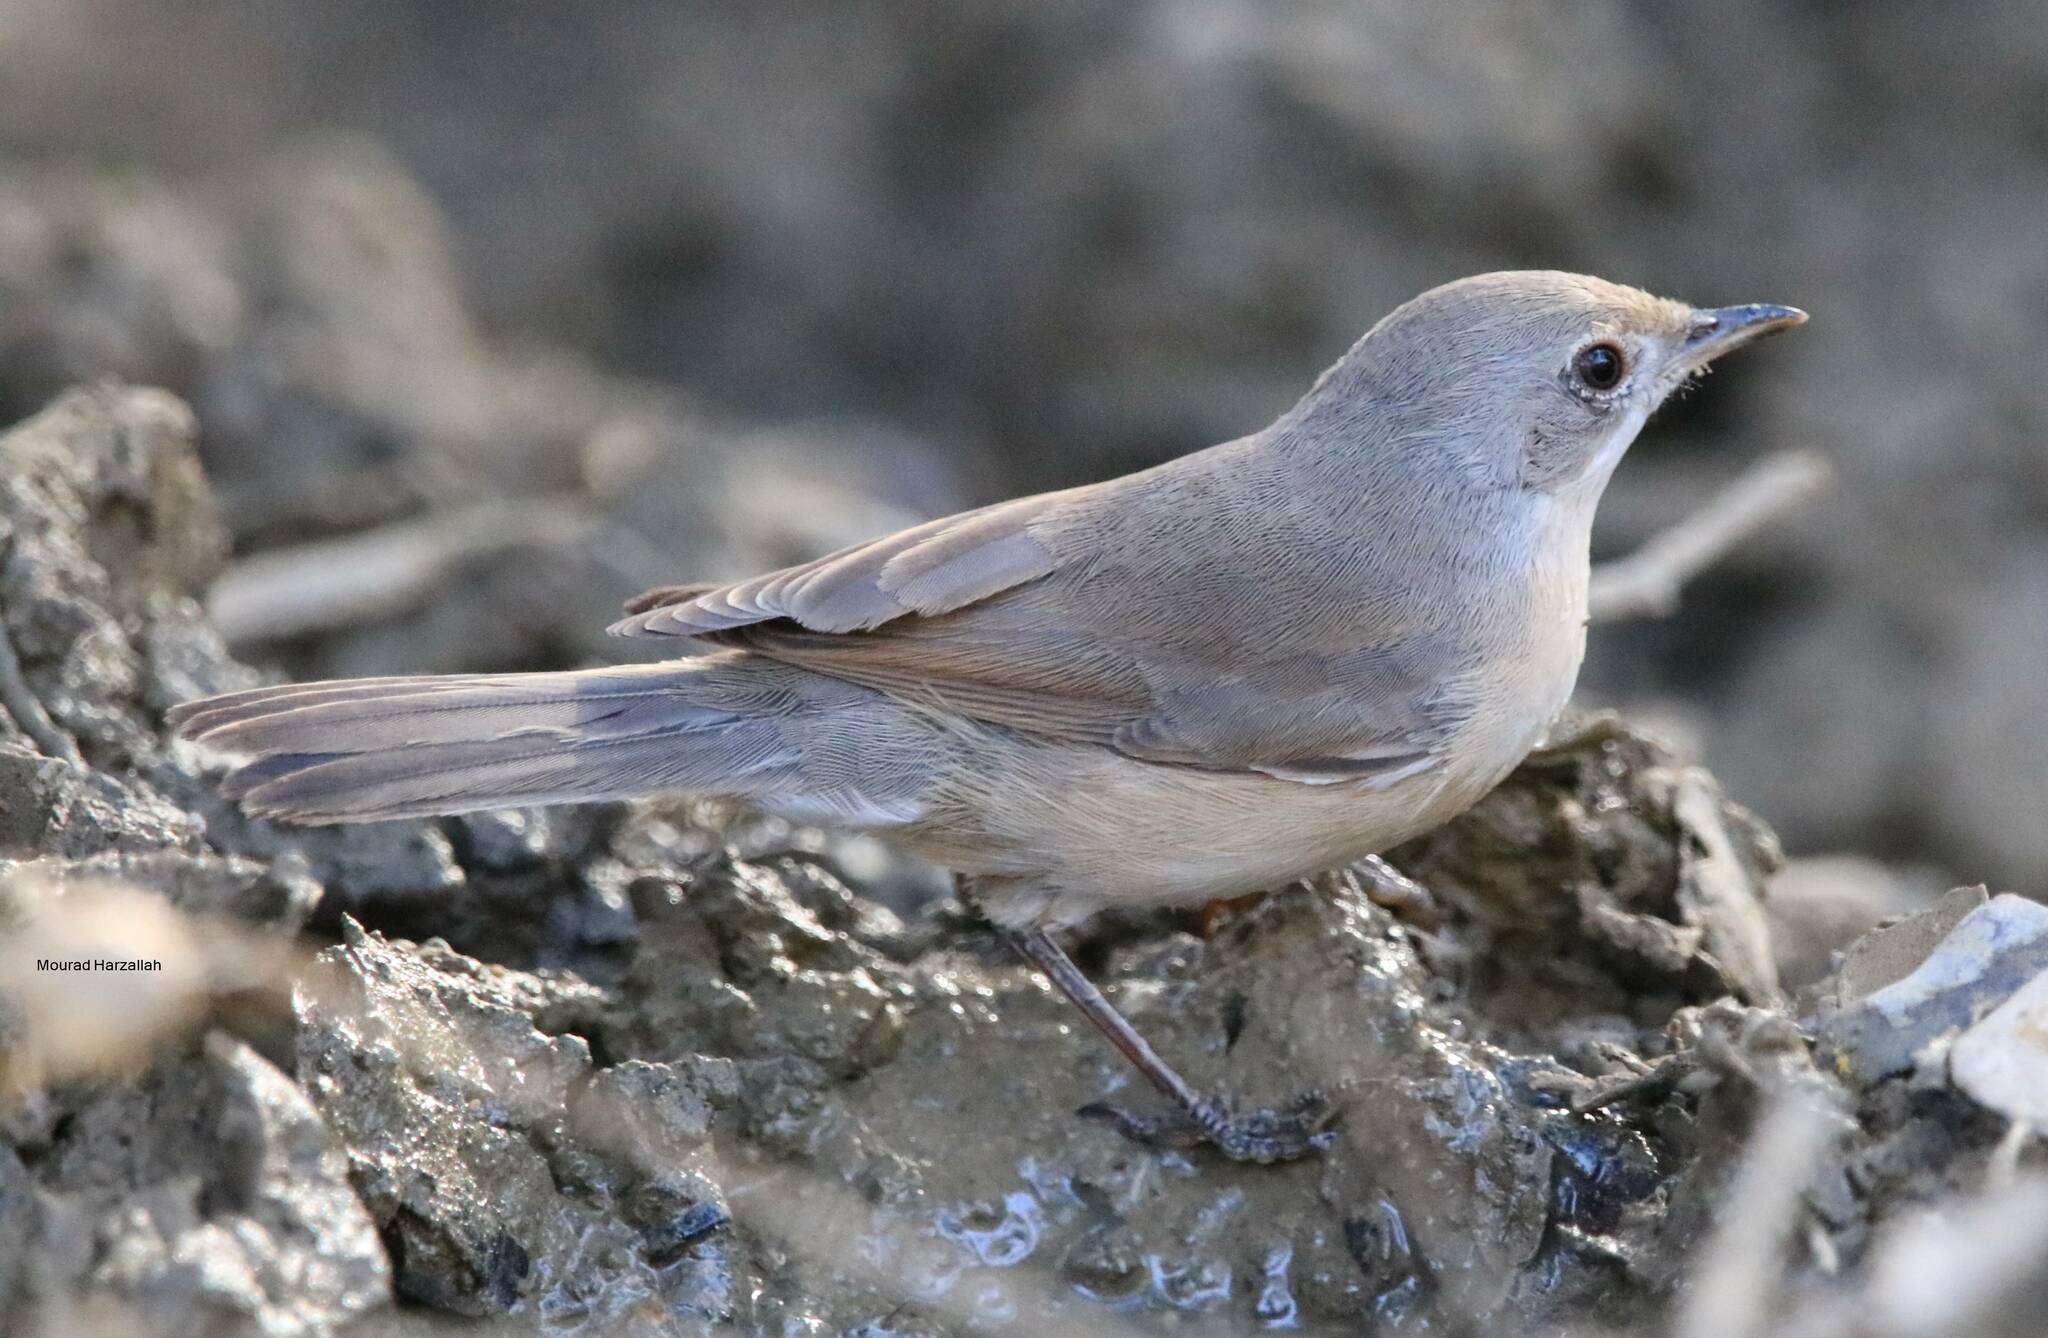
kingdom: Animalia
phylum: Chordata
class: Aves
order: Passeriformes
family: Sylviidae
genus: Curruca
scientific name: Curruca iberiae
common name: Western subalpine warbler
